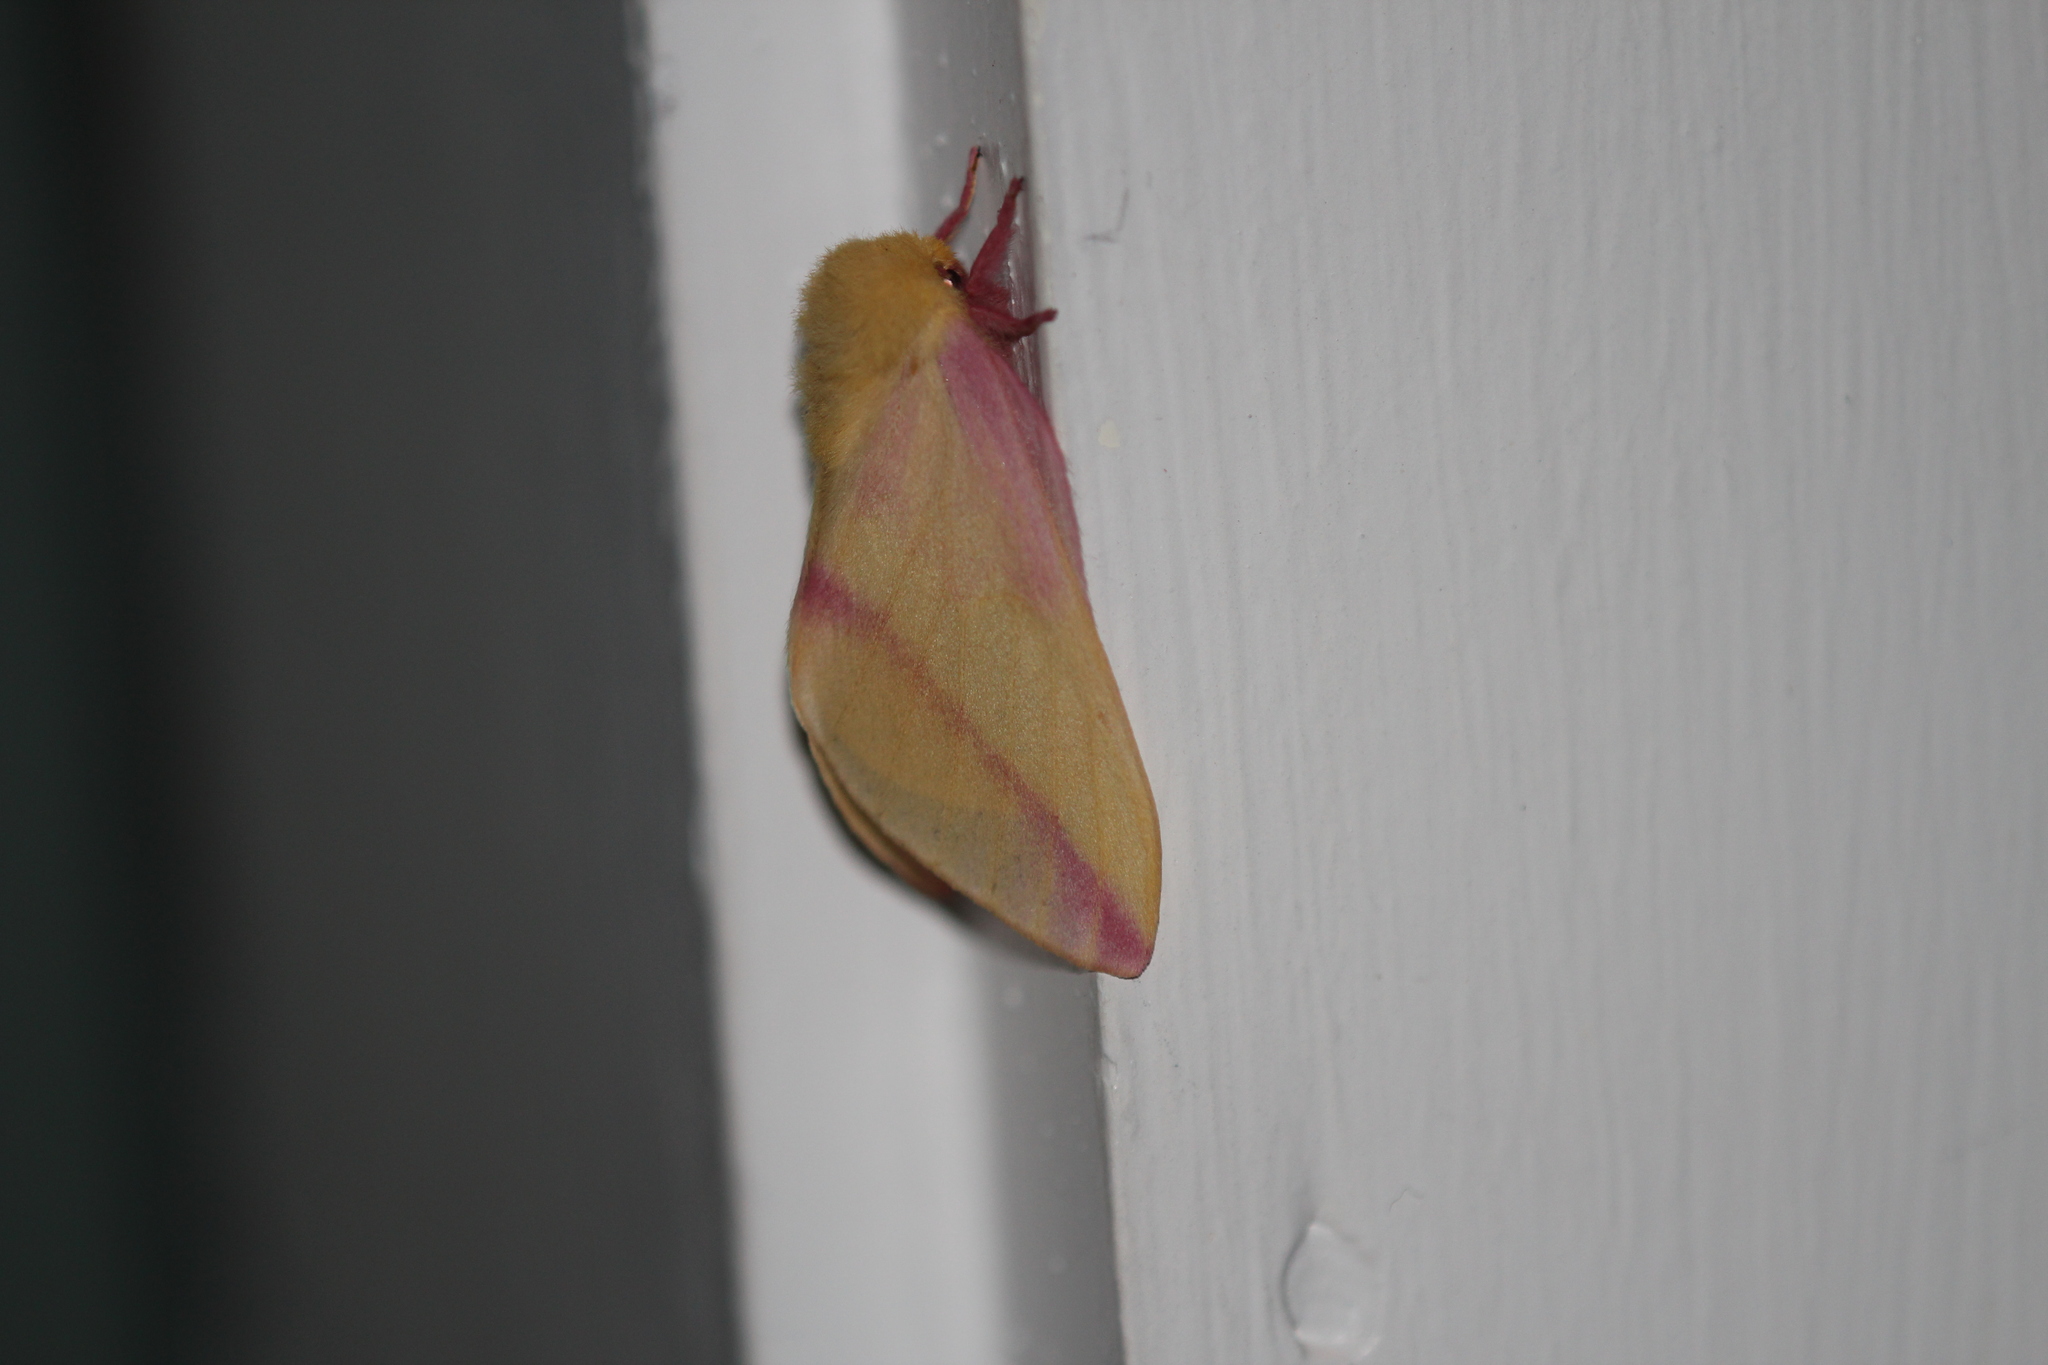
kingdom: Animalia
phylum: Arthropoda
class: Insecta
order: Lepidoptera
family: Saturniidae
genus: Dryocampa
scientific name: Dryocampa rubicunda
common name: Rosy maple moth
